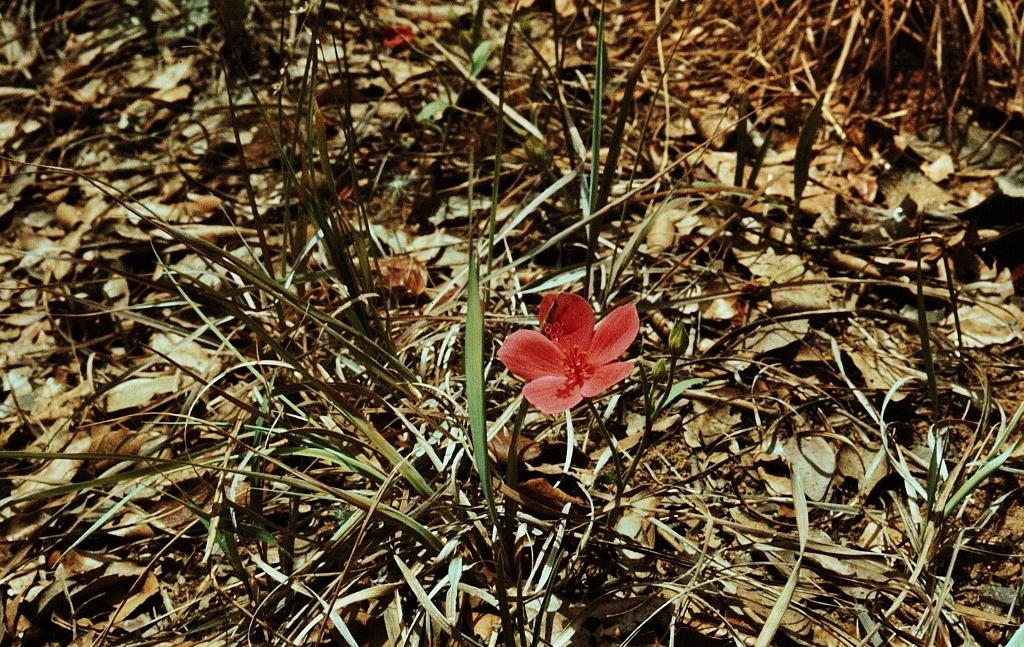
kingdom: Plantae
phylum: Tracheophyta
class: Magnoliopsida
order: Malvales
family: Malvaceae
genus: Hibiscus
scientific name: Hibiscus rhodanthus
